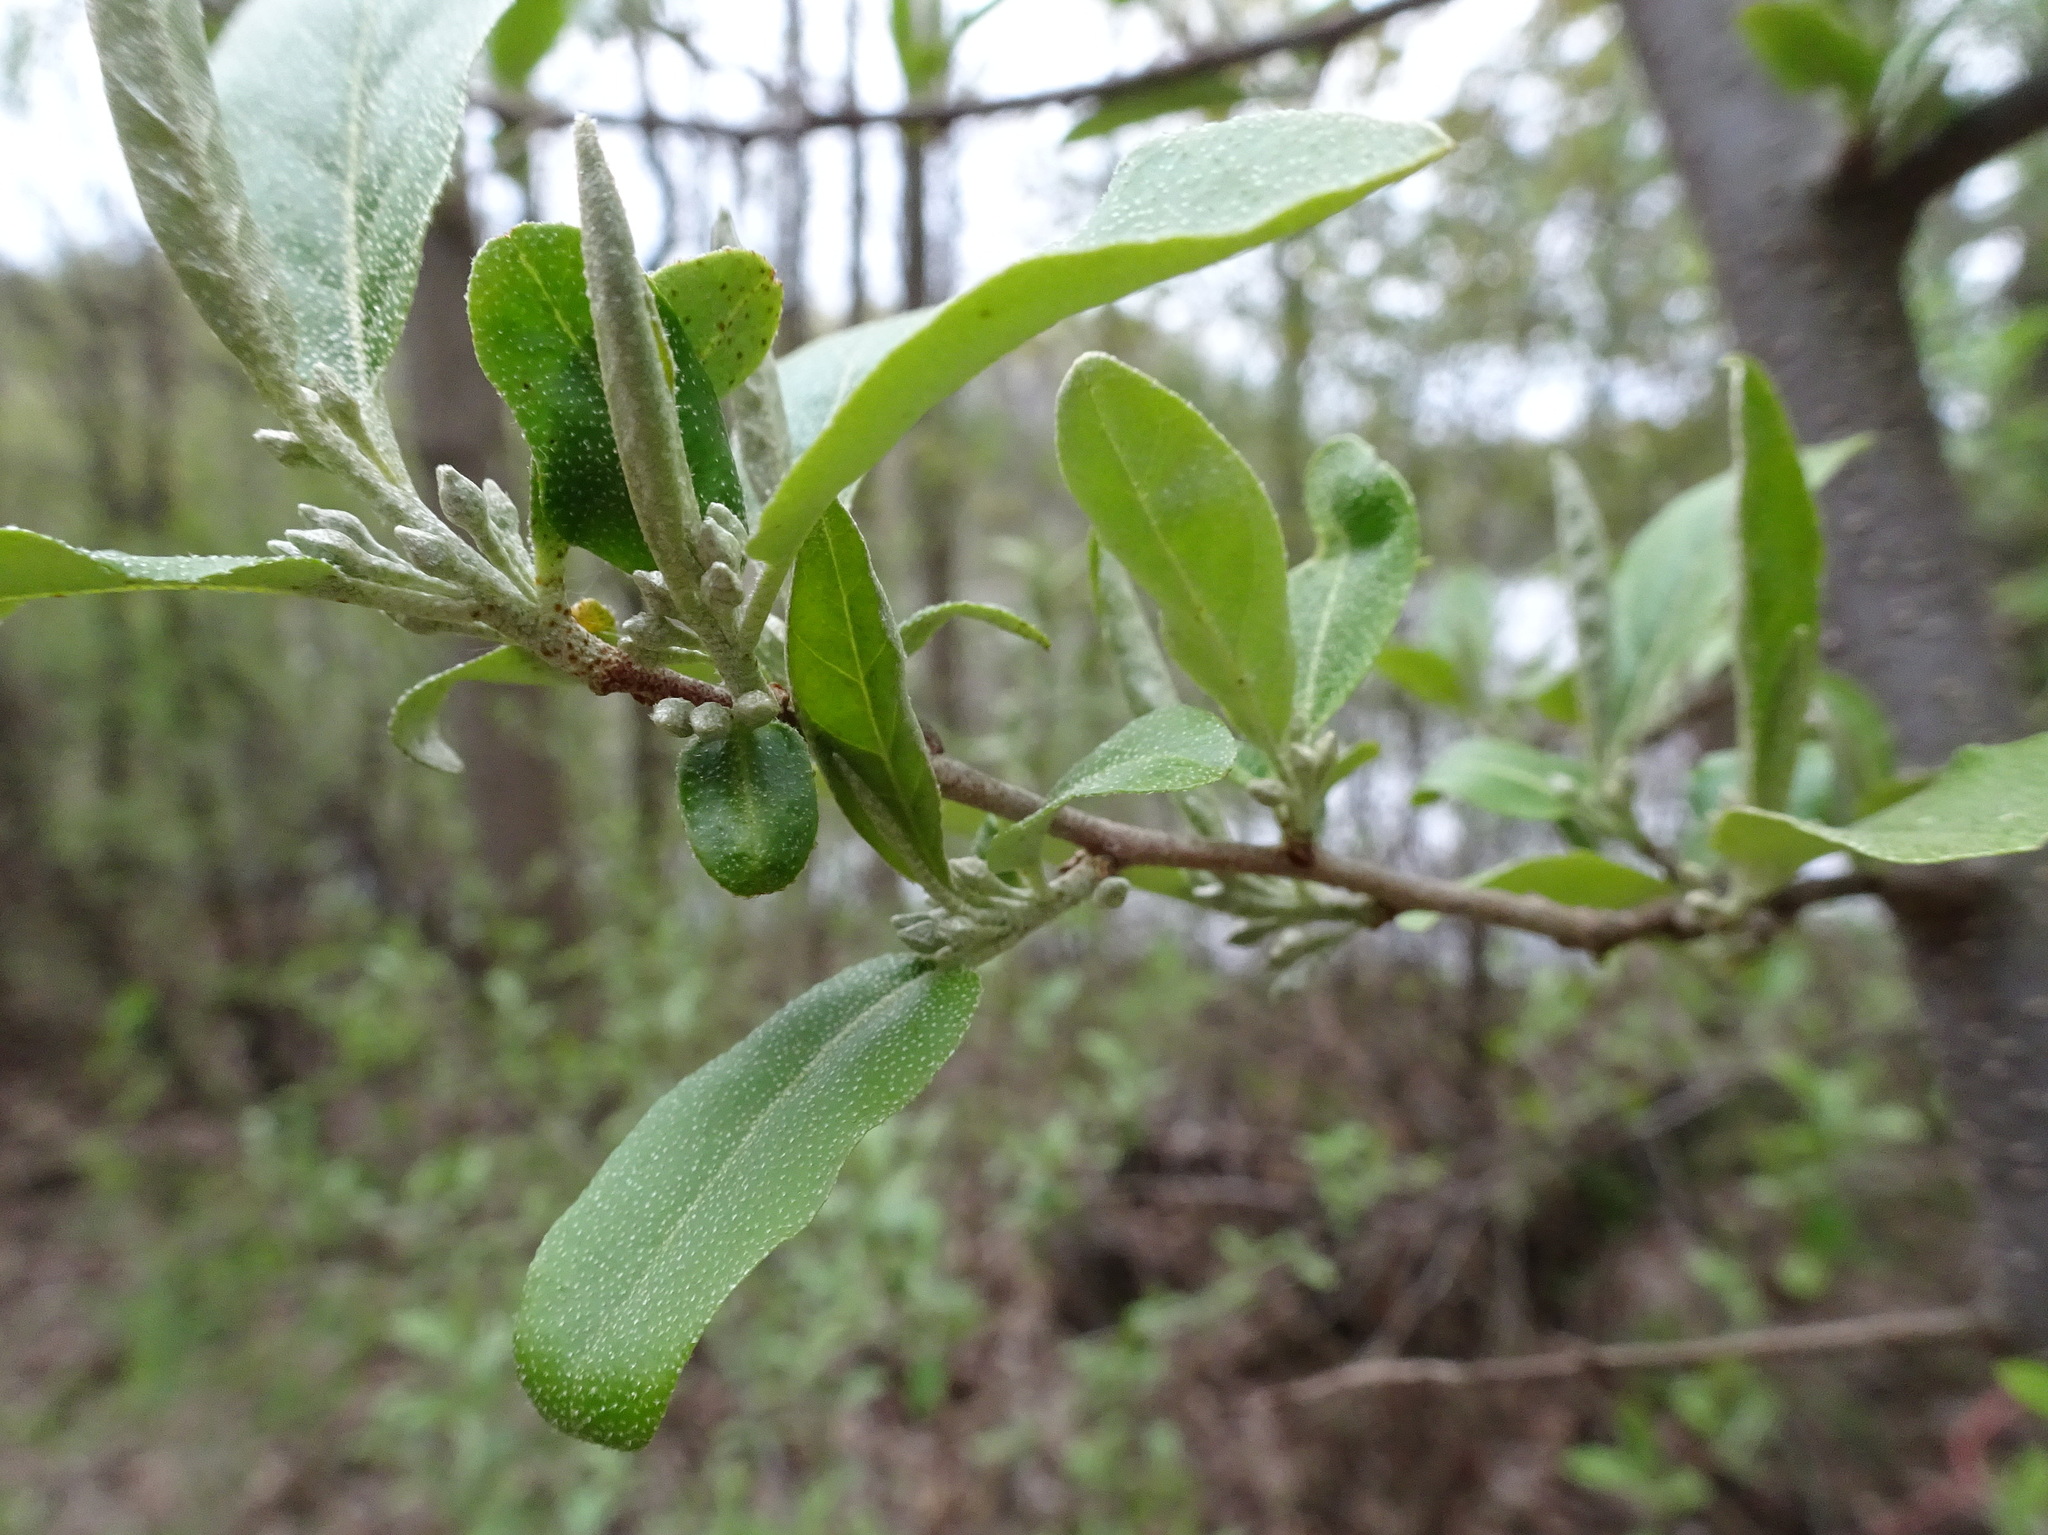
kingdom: Plantae
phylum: Tracheophyta
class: Magnoliopsida
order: Rosales
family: Elaeagnaceae
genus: Elaeagnus
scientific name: Elaeagnus umbellata
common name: Autumn olive
